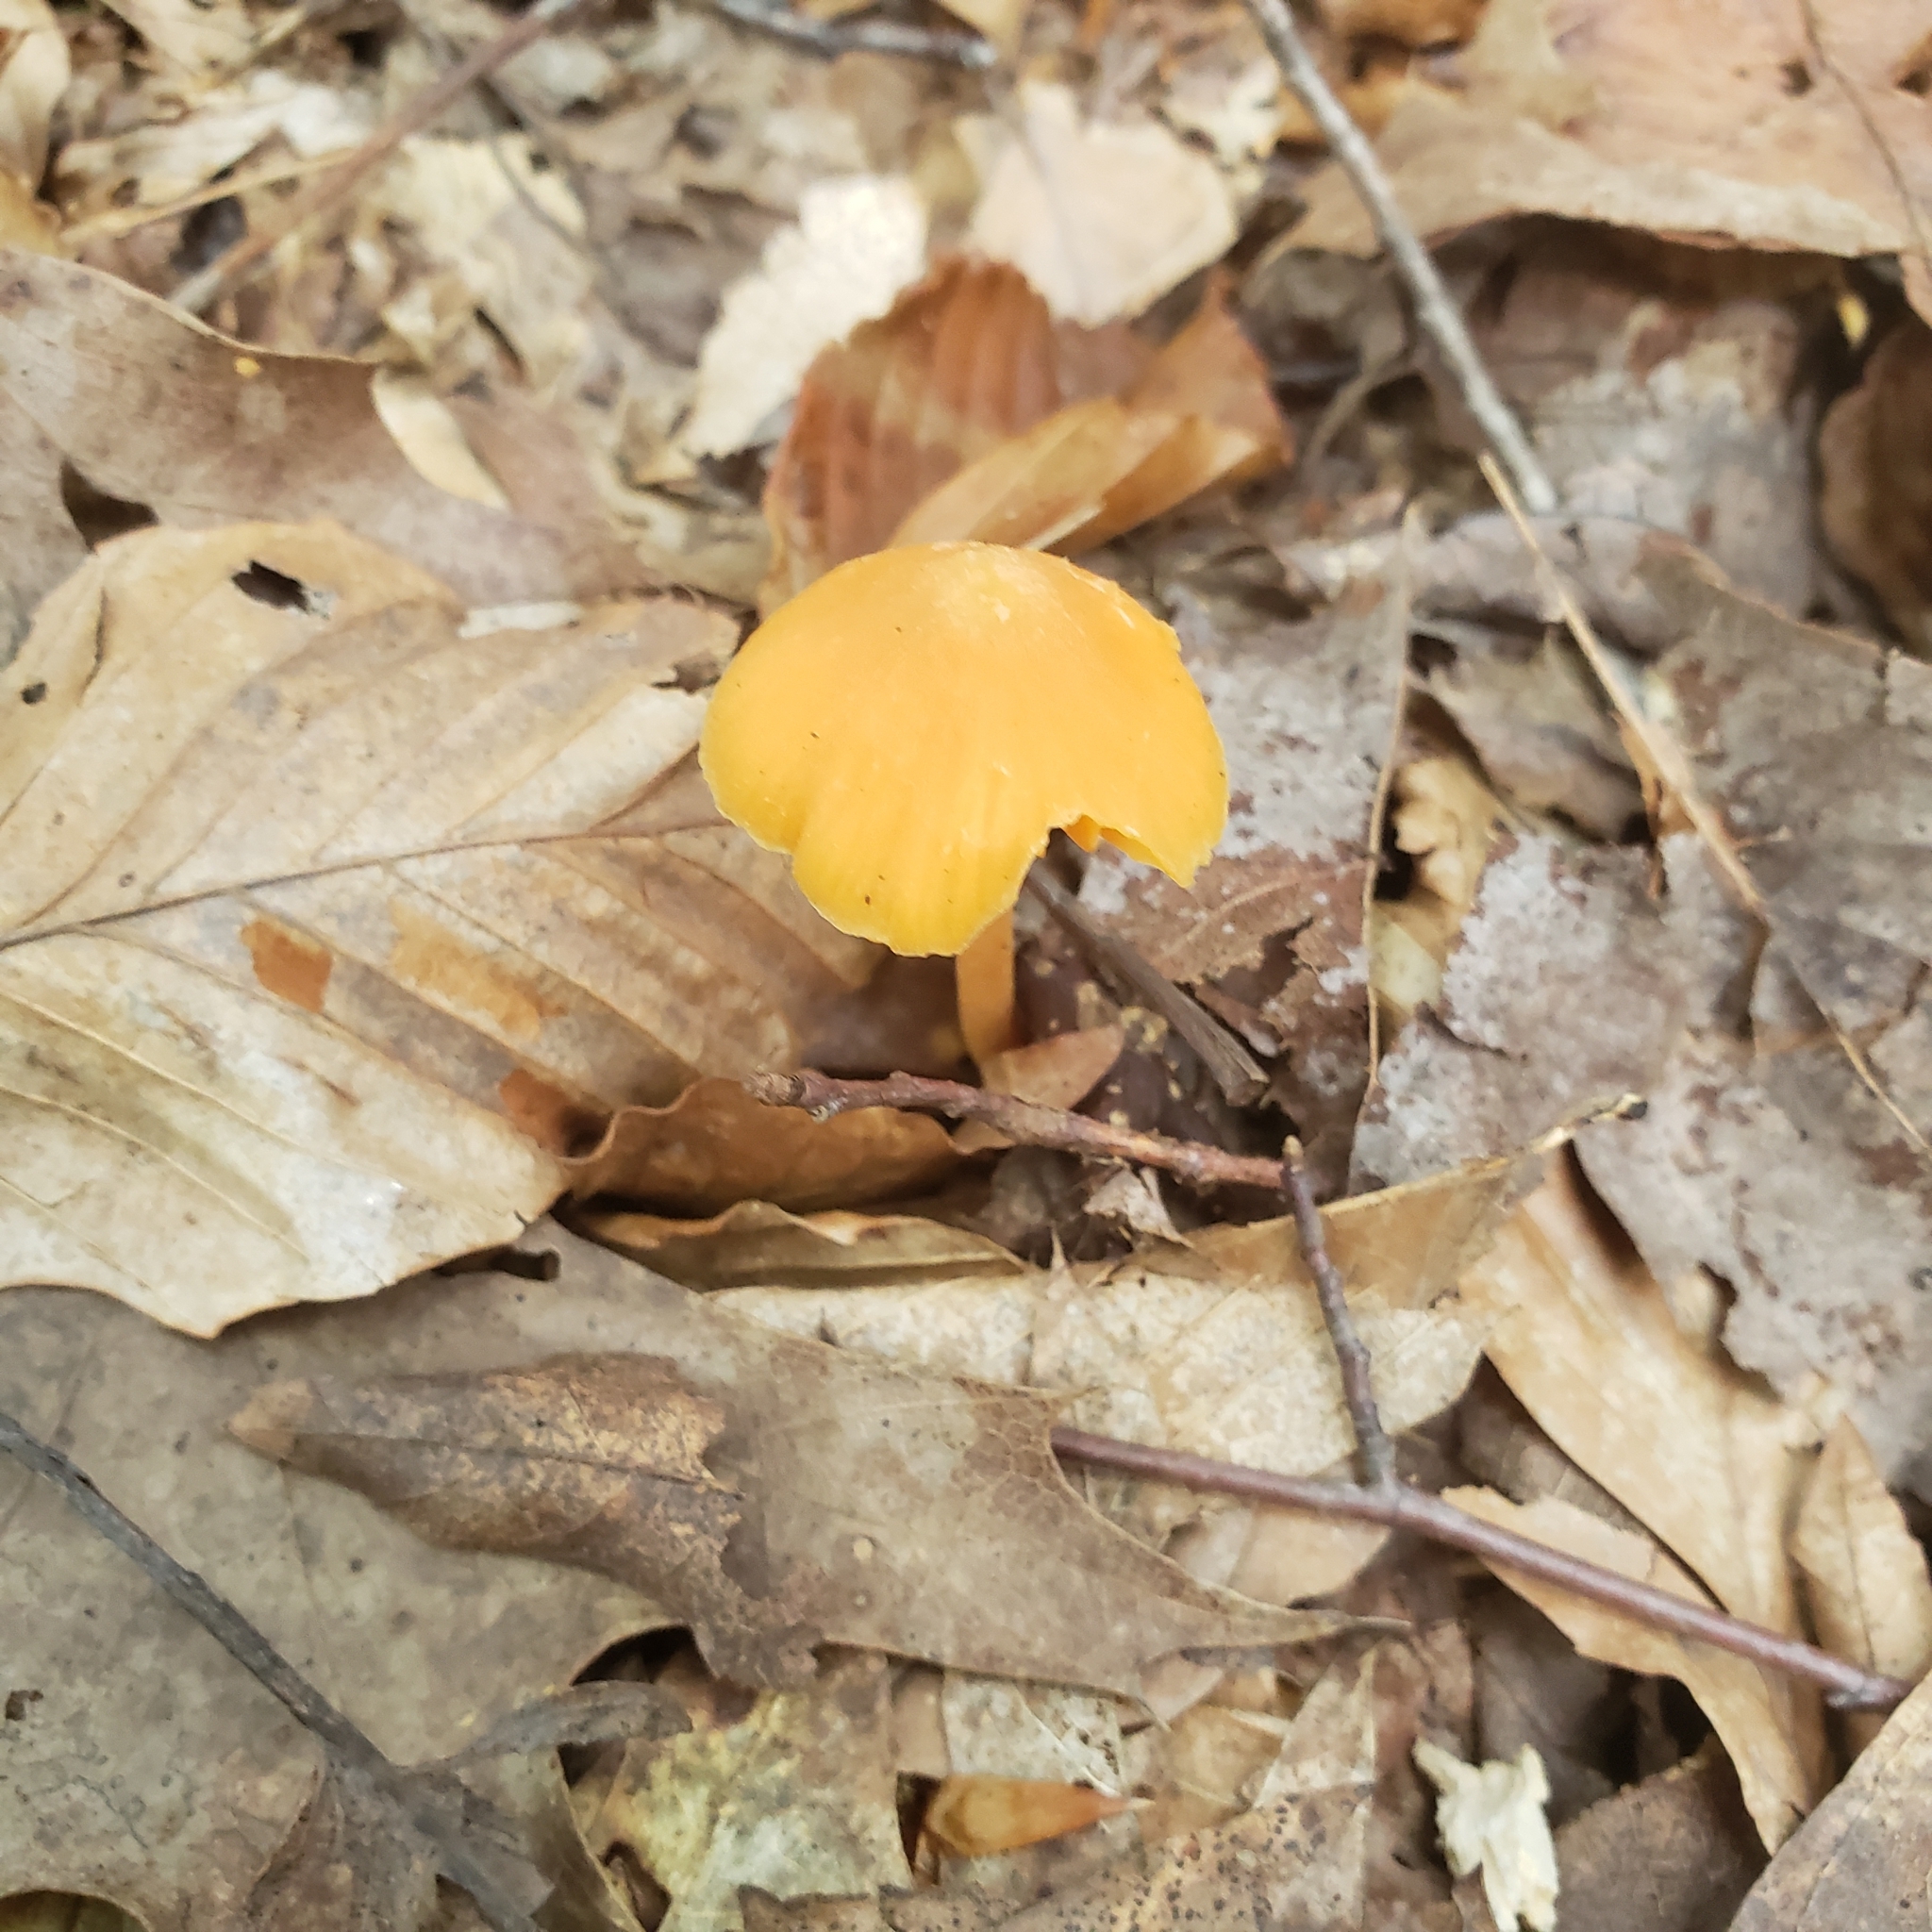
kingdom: Fungi
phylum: Basidiomycota
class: Agaricomycetes
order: Agaricales
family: Entolomataceae
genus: Entoloma
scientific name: Entoloma quadratum
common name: Salmon pinkgill
